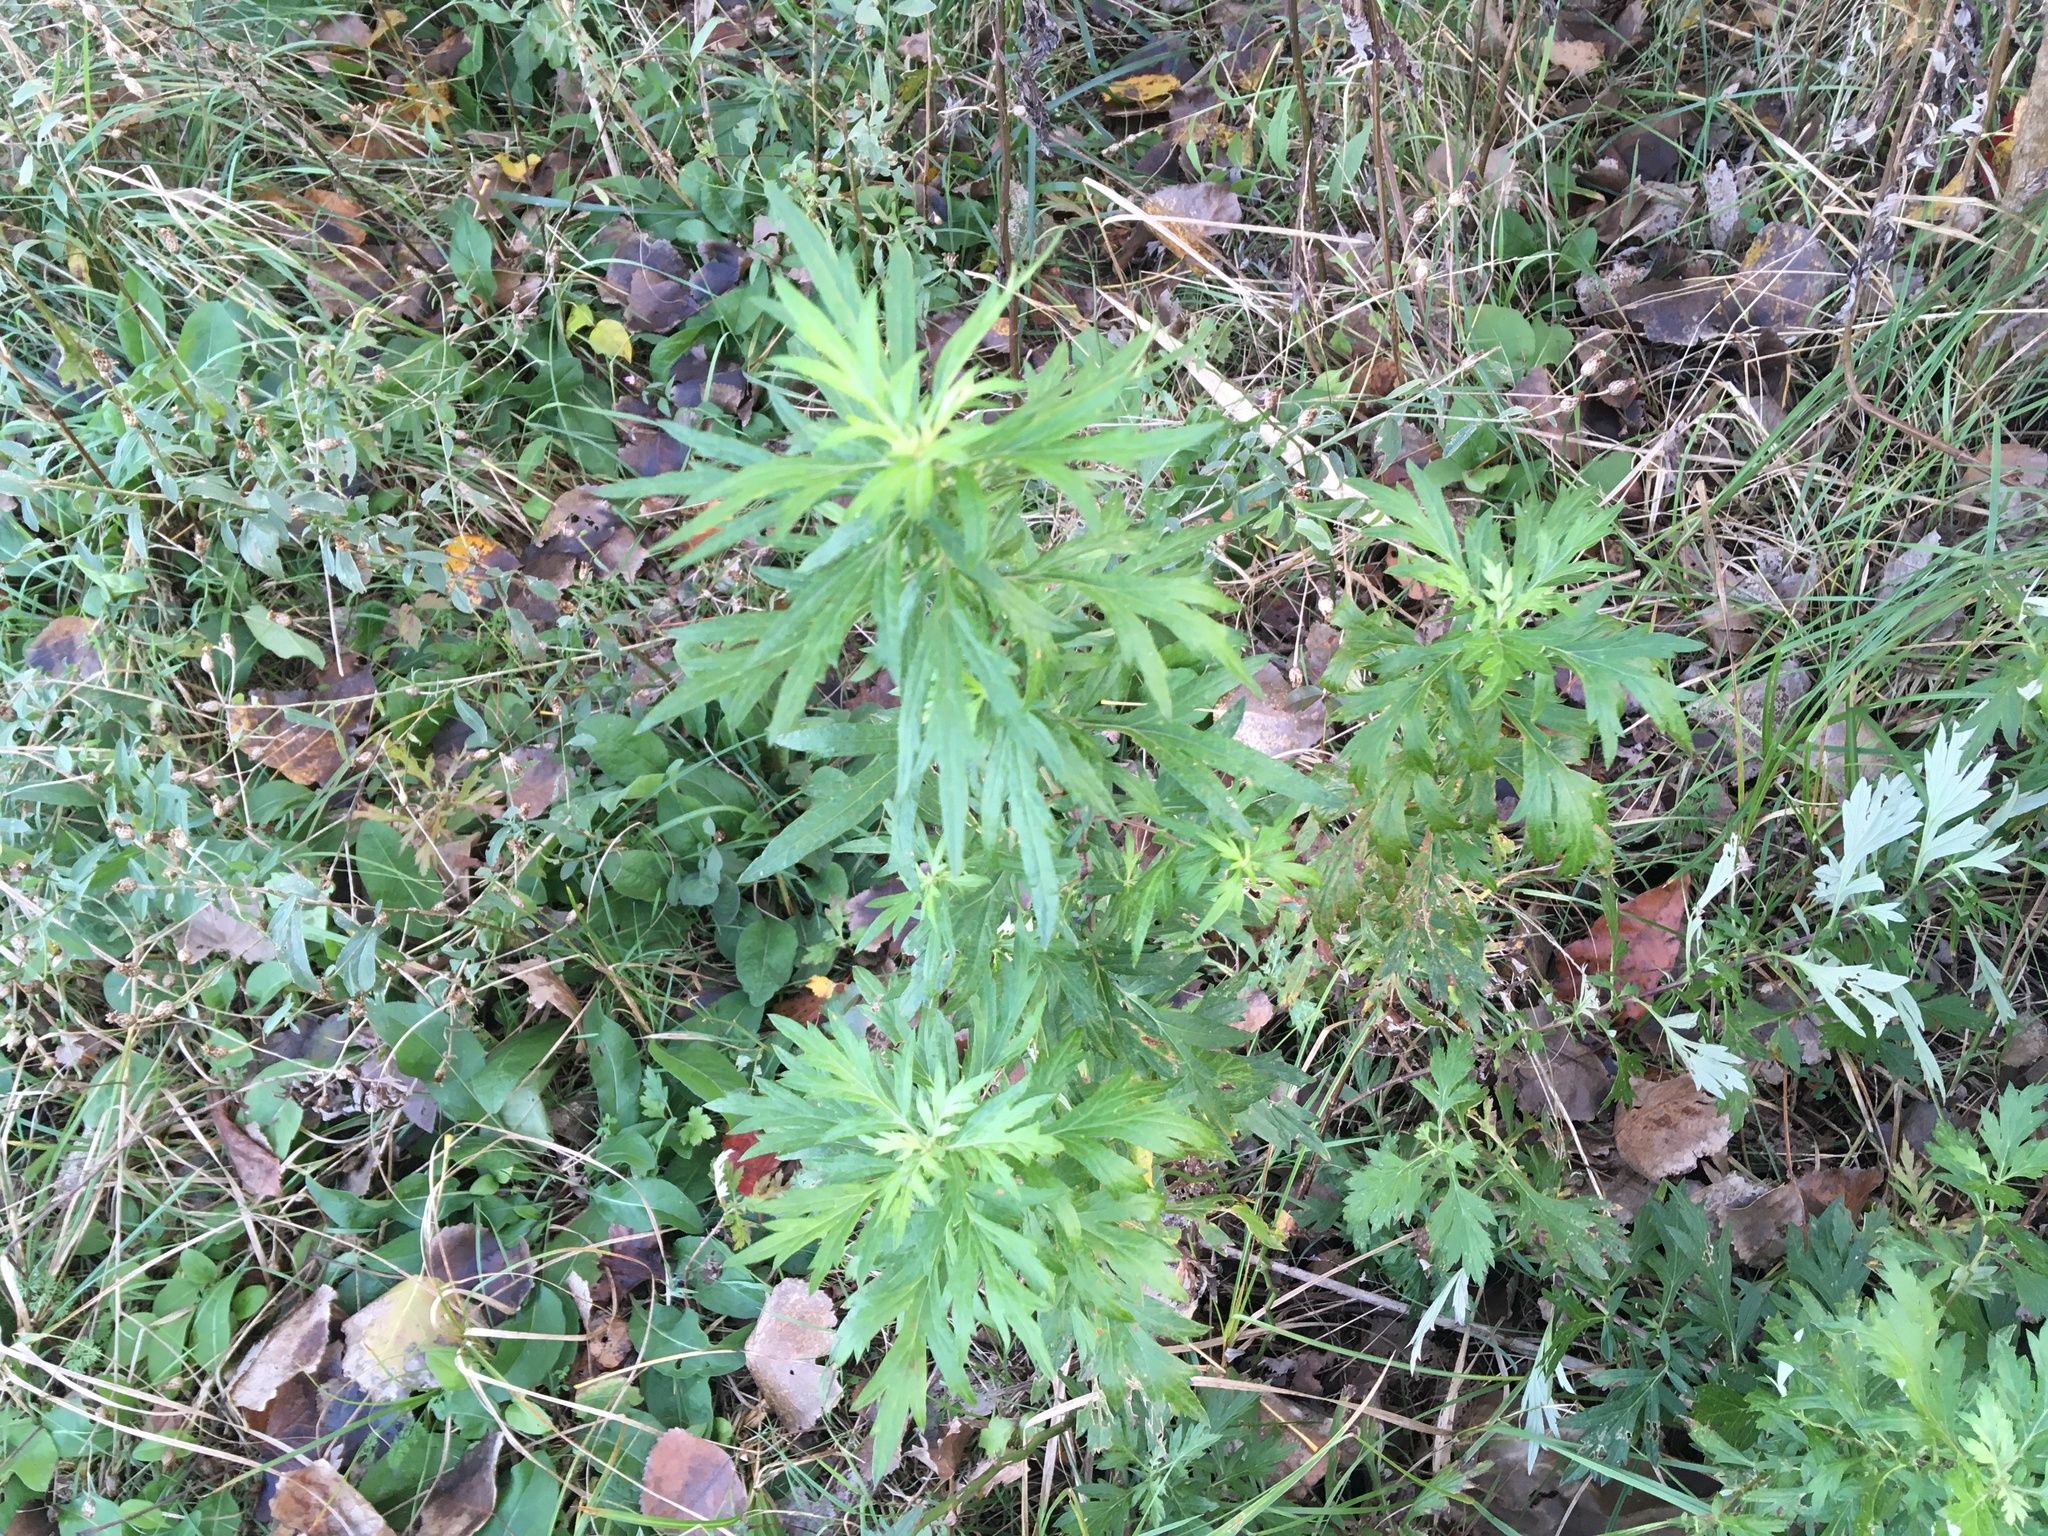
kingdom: Plantae
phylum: Tracheophyta
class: Magnoliopsida
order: Asterales
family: Asteraceae
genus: Artemisia
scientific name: Artemisia vulgaris
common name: Mugwort
